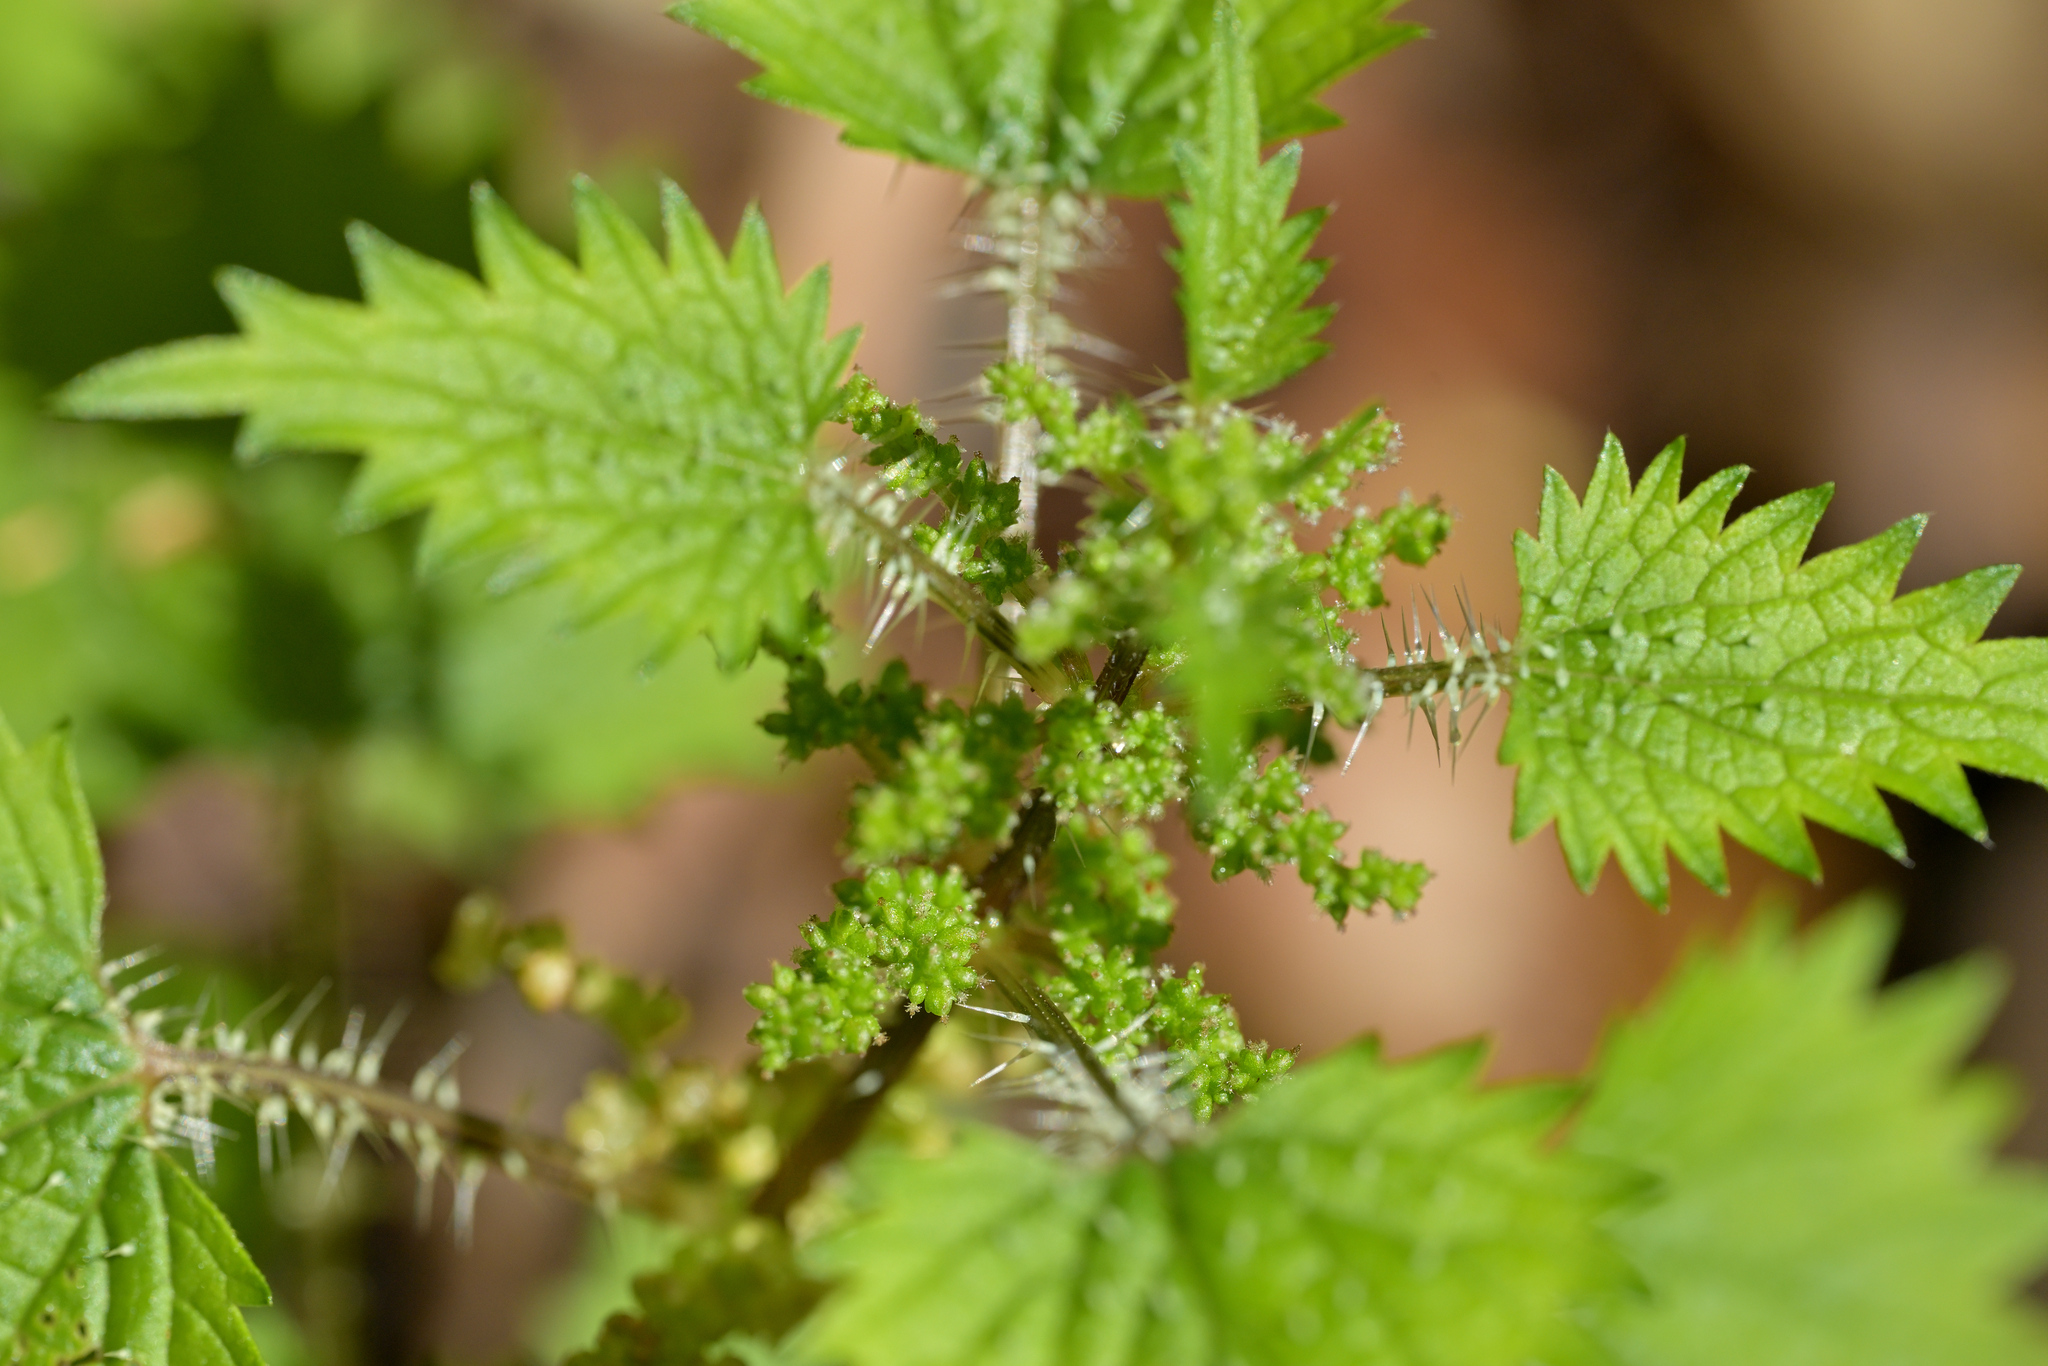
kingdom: Plantae
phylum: Tracheophyta
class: Magnoliopsida
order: Rosales
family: Urticaceae
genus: Urtica
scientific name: Urtica sykesii
